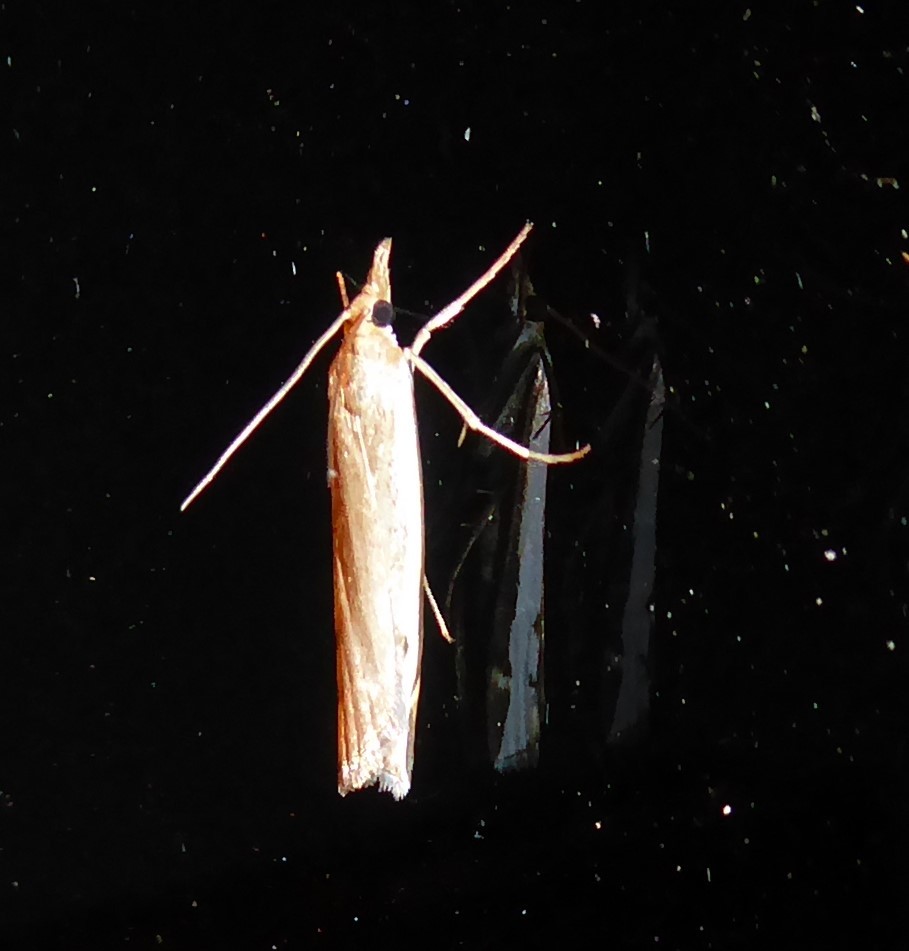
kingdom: Animalia
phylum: Arthropoda
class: Insecta
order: Lepidoptera
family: Crambidae
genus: Orocrambus
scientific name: Orocrambus flexuosellus
